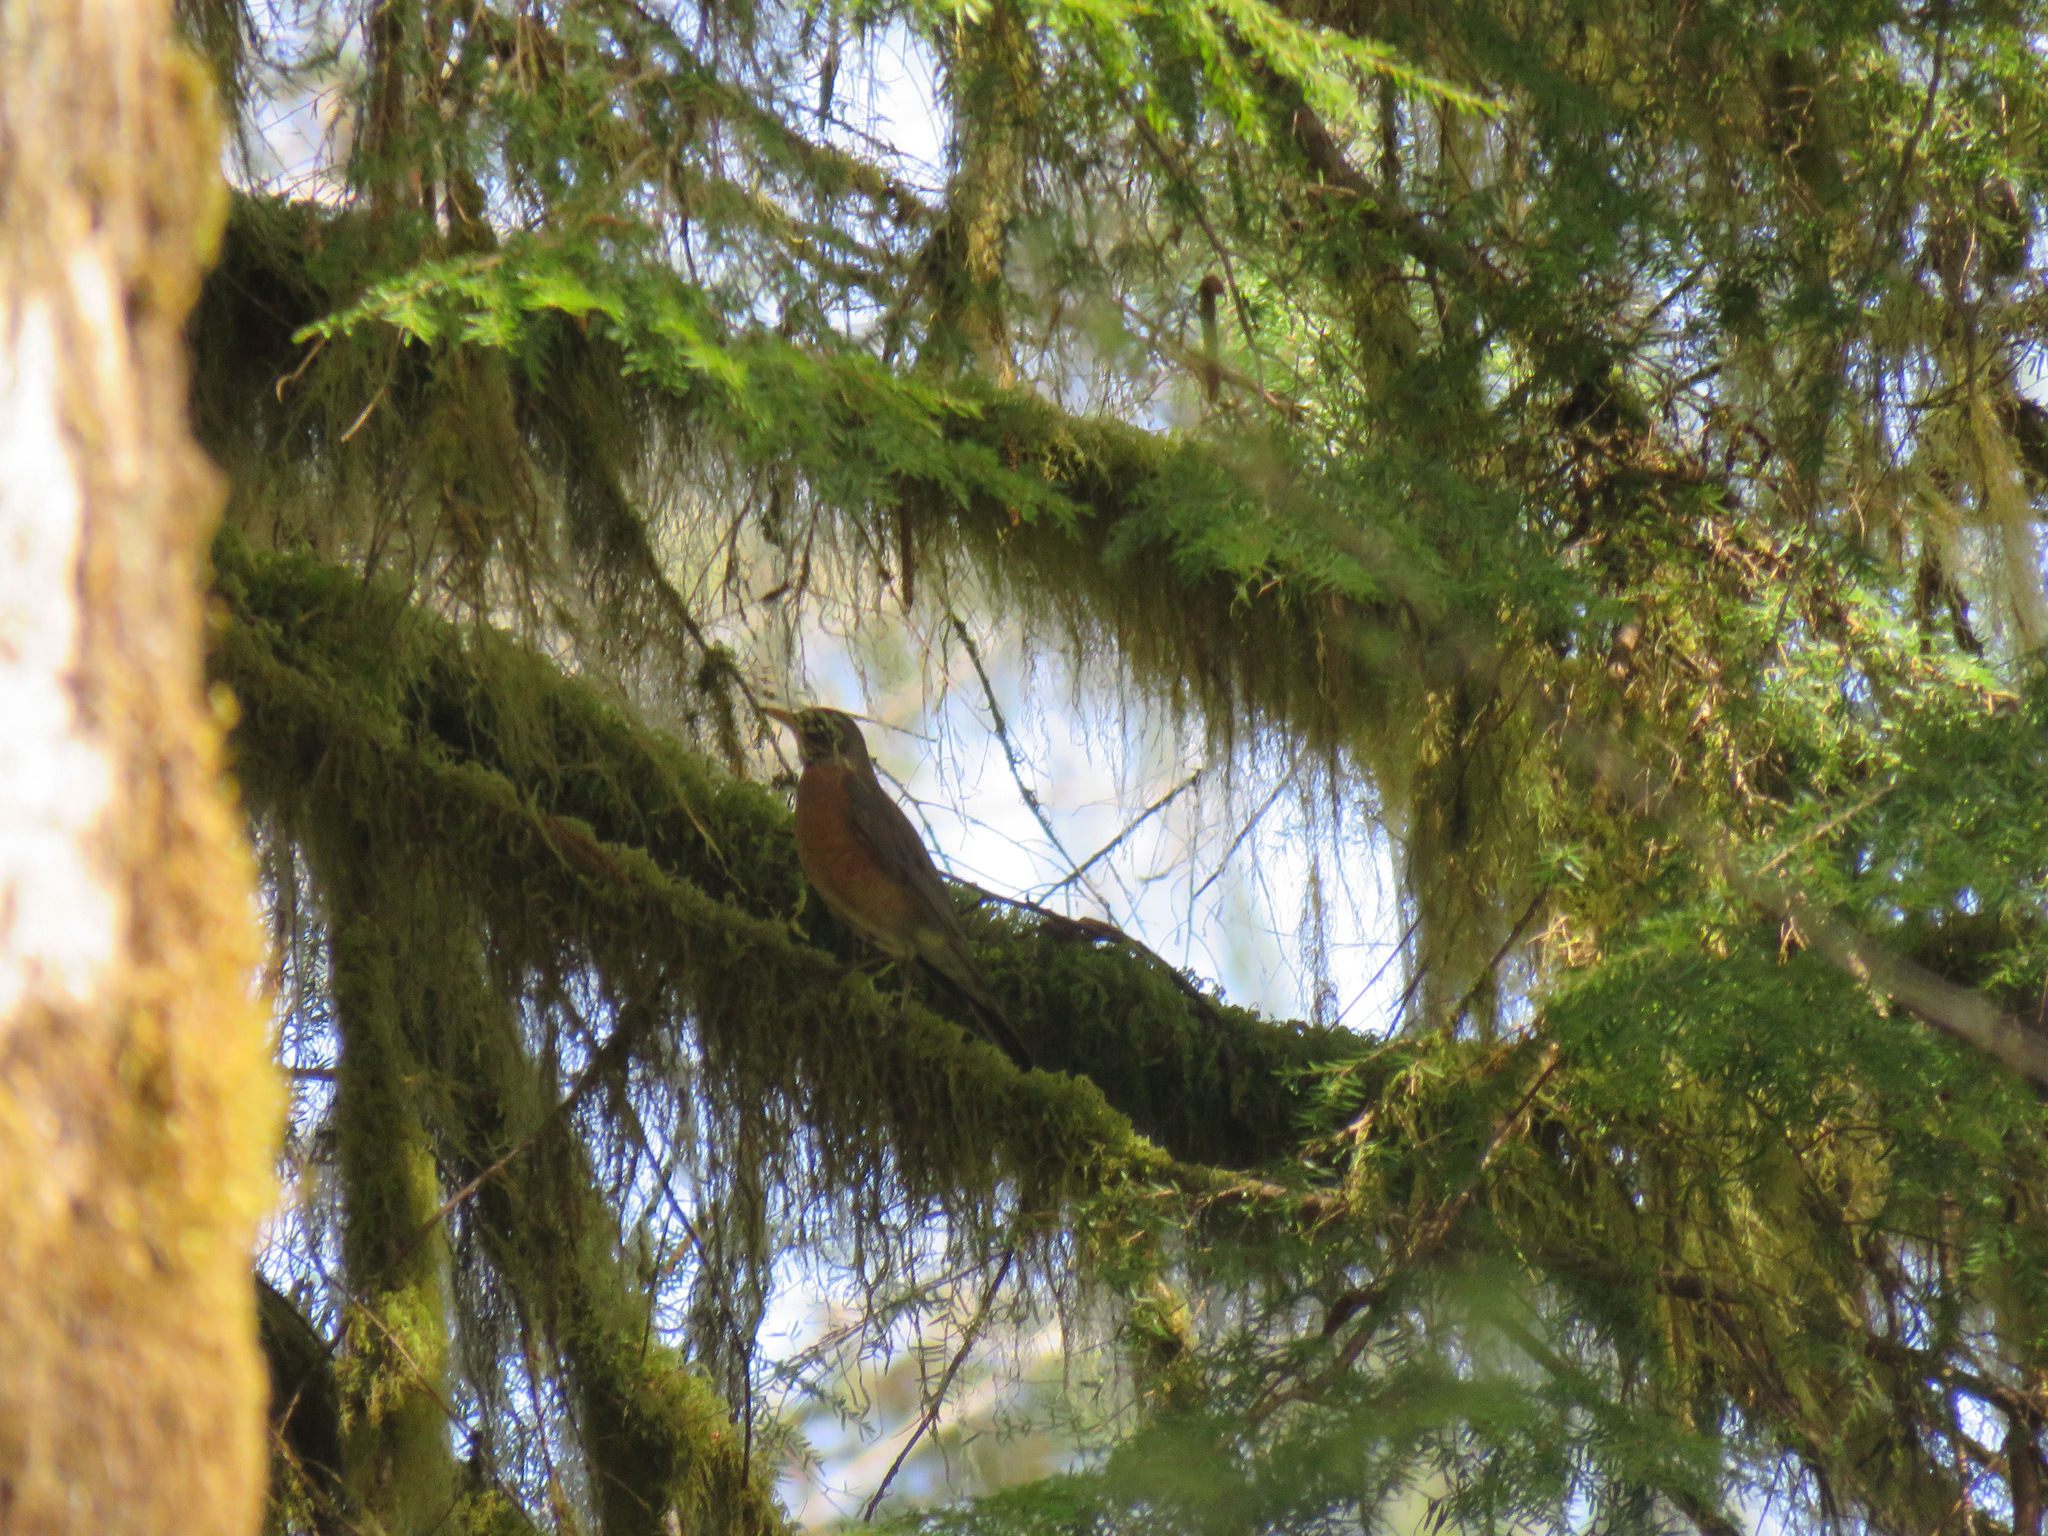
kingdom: Animalia
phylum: Chordata
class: Aves
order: Passeriformes
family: Turdidae
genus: Turdus
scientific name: Turdus migratorius
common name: American robin
